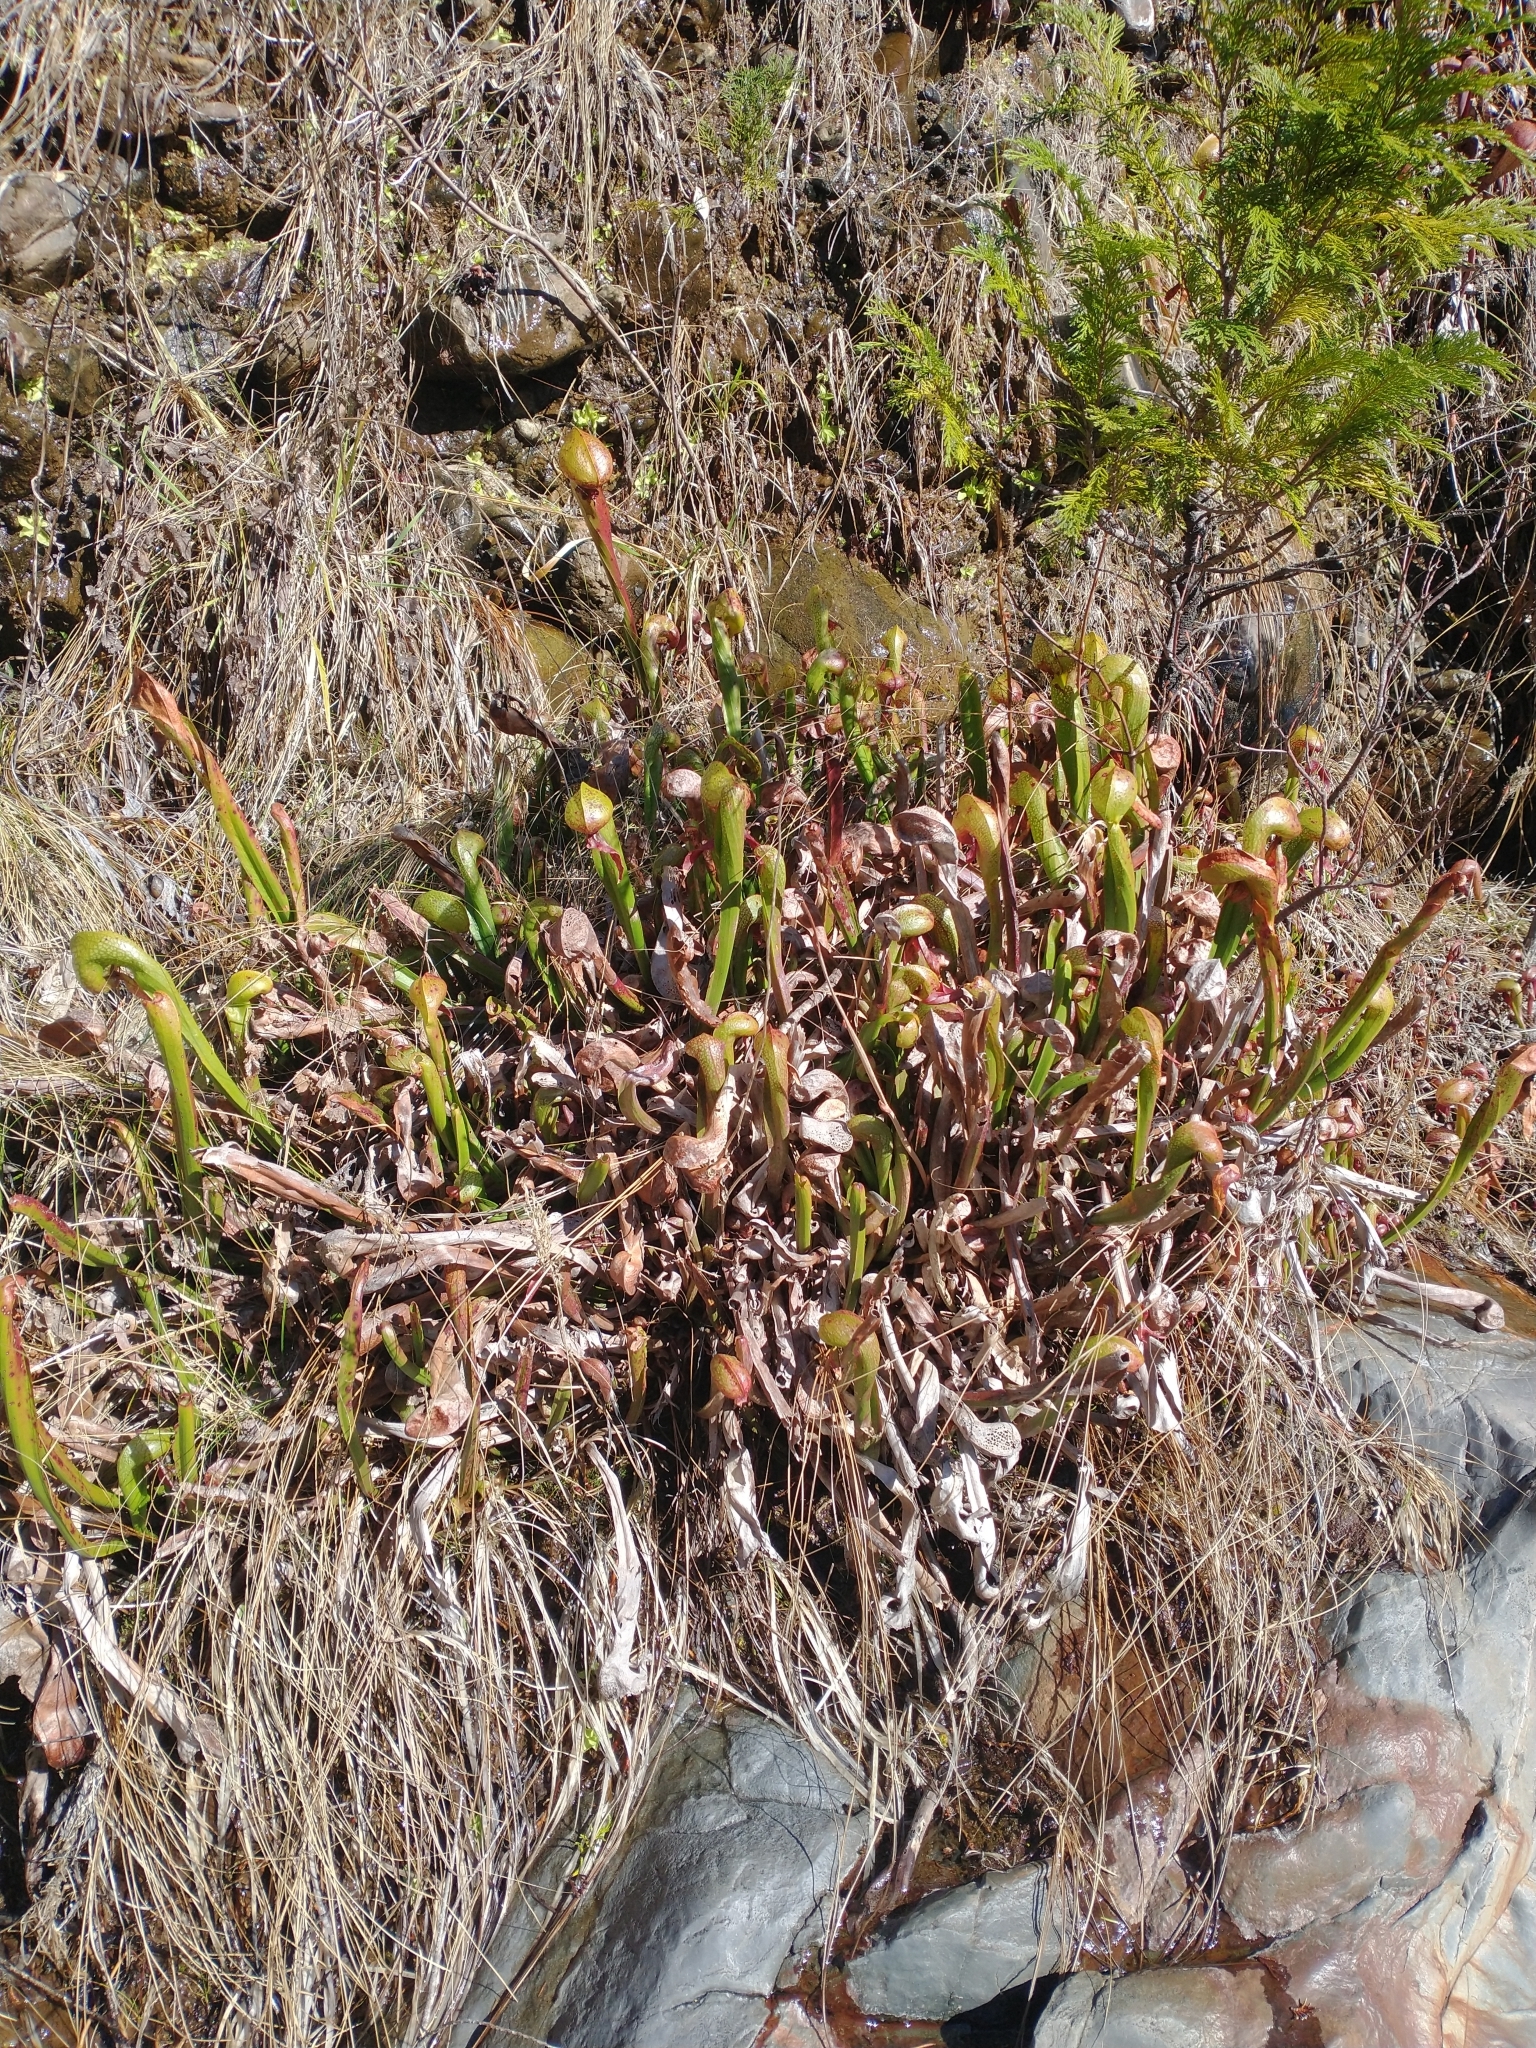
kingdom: Plantae
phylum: Tracheophyta
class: Magnoliopsida
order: Ericales
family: Sarraceniaceae
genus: Darlingtonia
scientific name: Darlingtonia californica
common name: California pitcher plant
